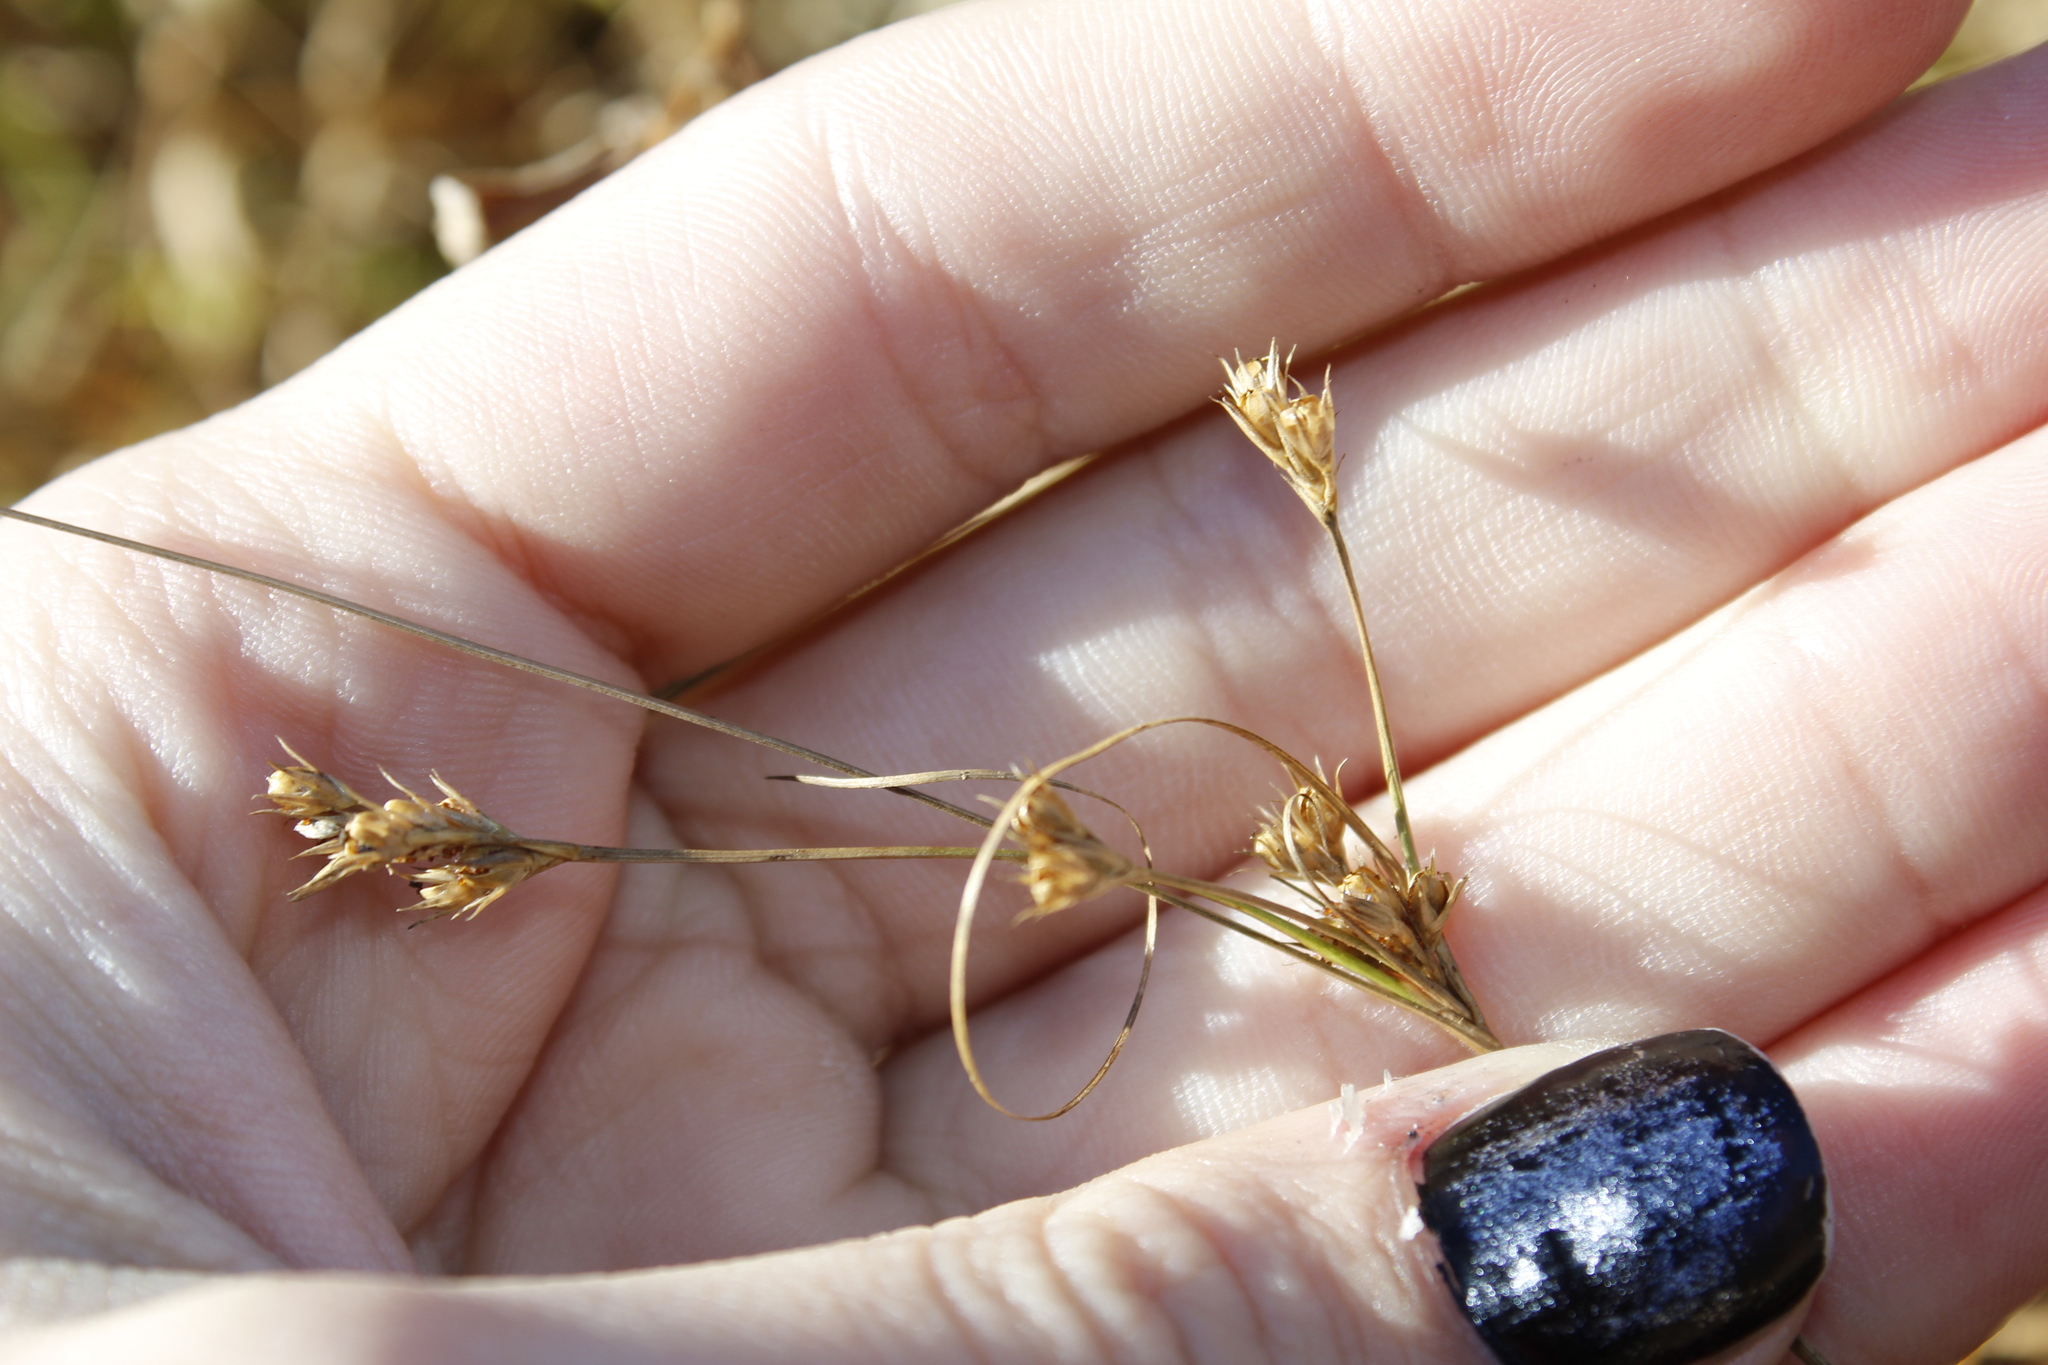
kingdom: Plantae
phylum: Tracheophyta
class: Liliopsida
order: Poales
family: Juncaceae
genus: Juncus
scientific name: Juncus tenuis
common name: Slender rush
